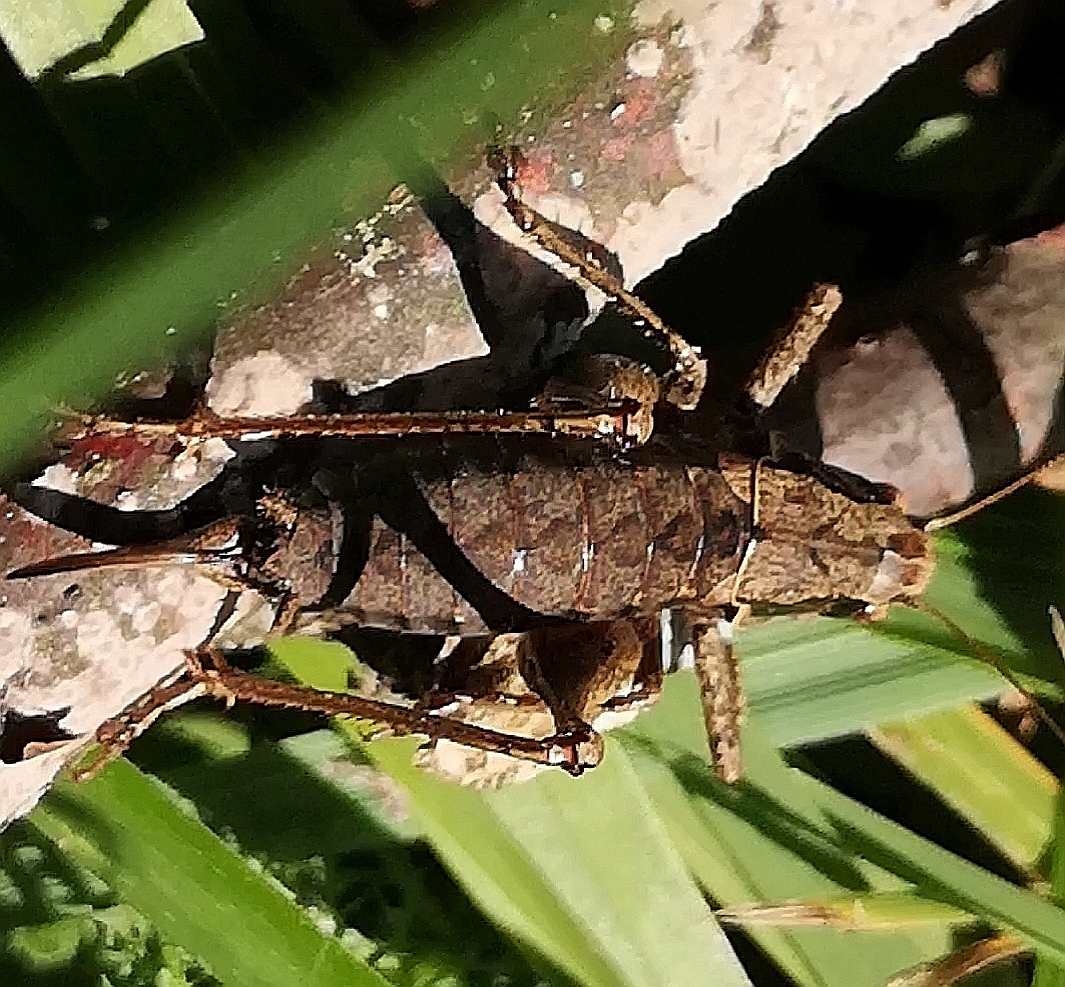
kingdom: Animalia
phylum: Arthropoda
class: Insecta
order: Orthoptera
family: Tettigoniidae
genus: Pholidoptera
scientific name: Pholidoptera griseoaptera
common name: Dark bush-cricket
